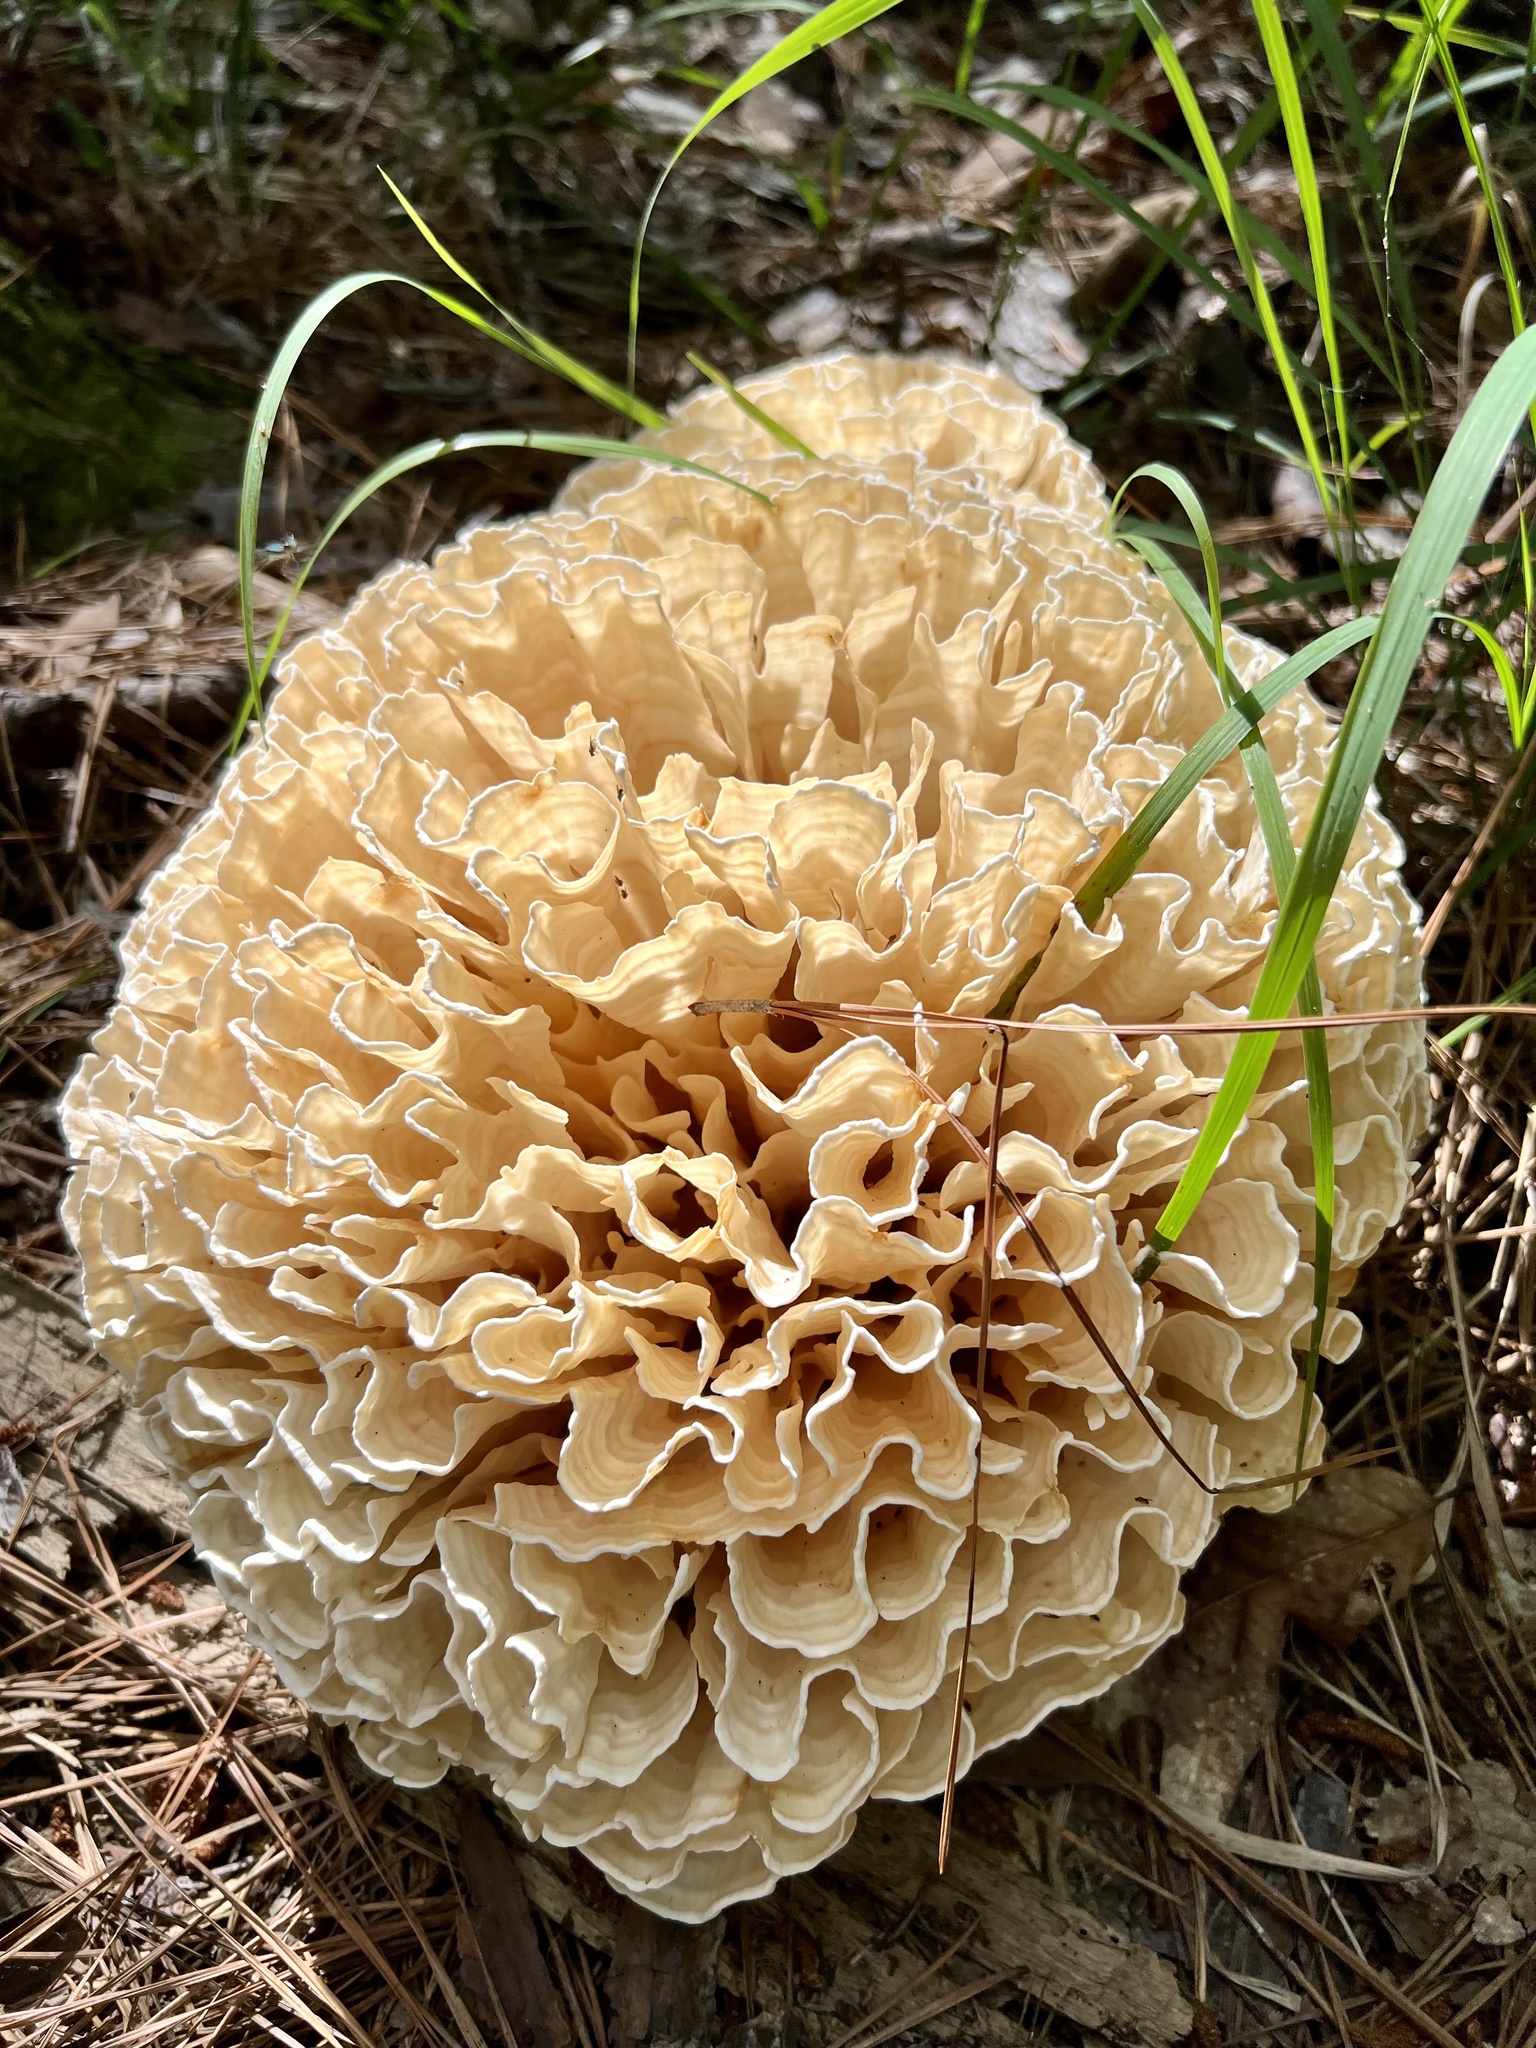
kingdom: Fungi
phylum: Basidiomycota
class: Agaricomycetes
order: Polyporales
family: Sparassidaceae
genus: Sparassis
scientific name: Sparassis spathulata
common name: Eastern cauliflower mushroom
